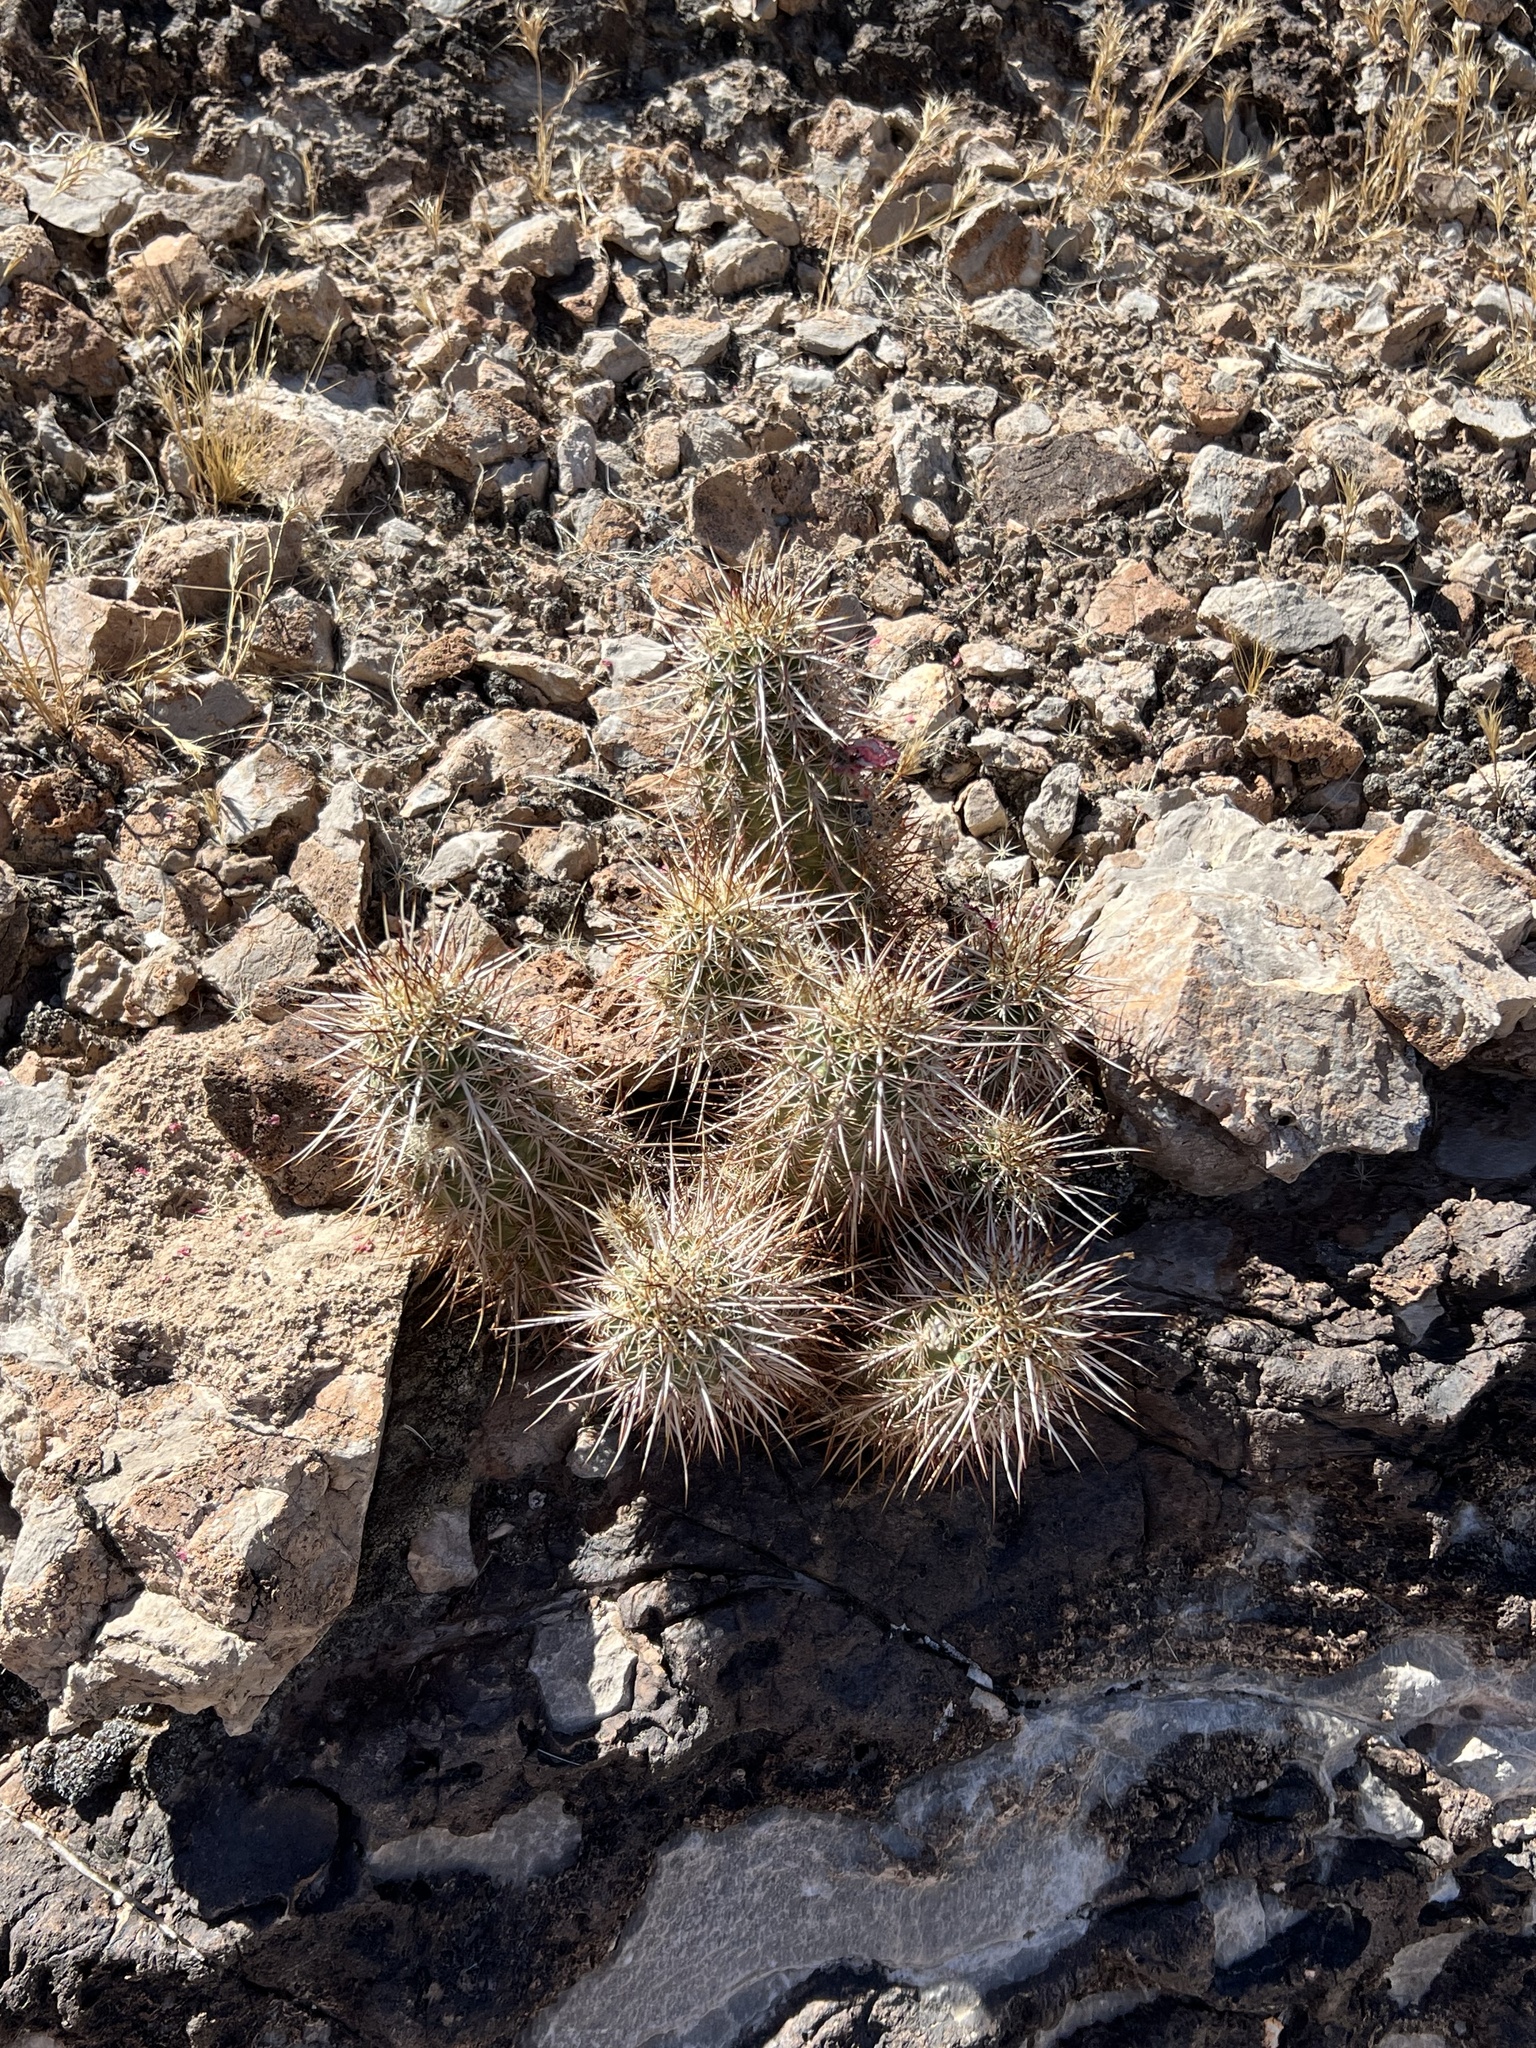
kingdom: Plantae
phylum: Tracheophyta
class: Magnoliopsida
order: Caryophyllales
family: Cactaceae
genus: Echinocereus
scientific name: Echinocereus engelmannii
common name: Engelmann's hedgehog cactus
